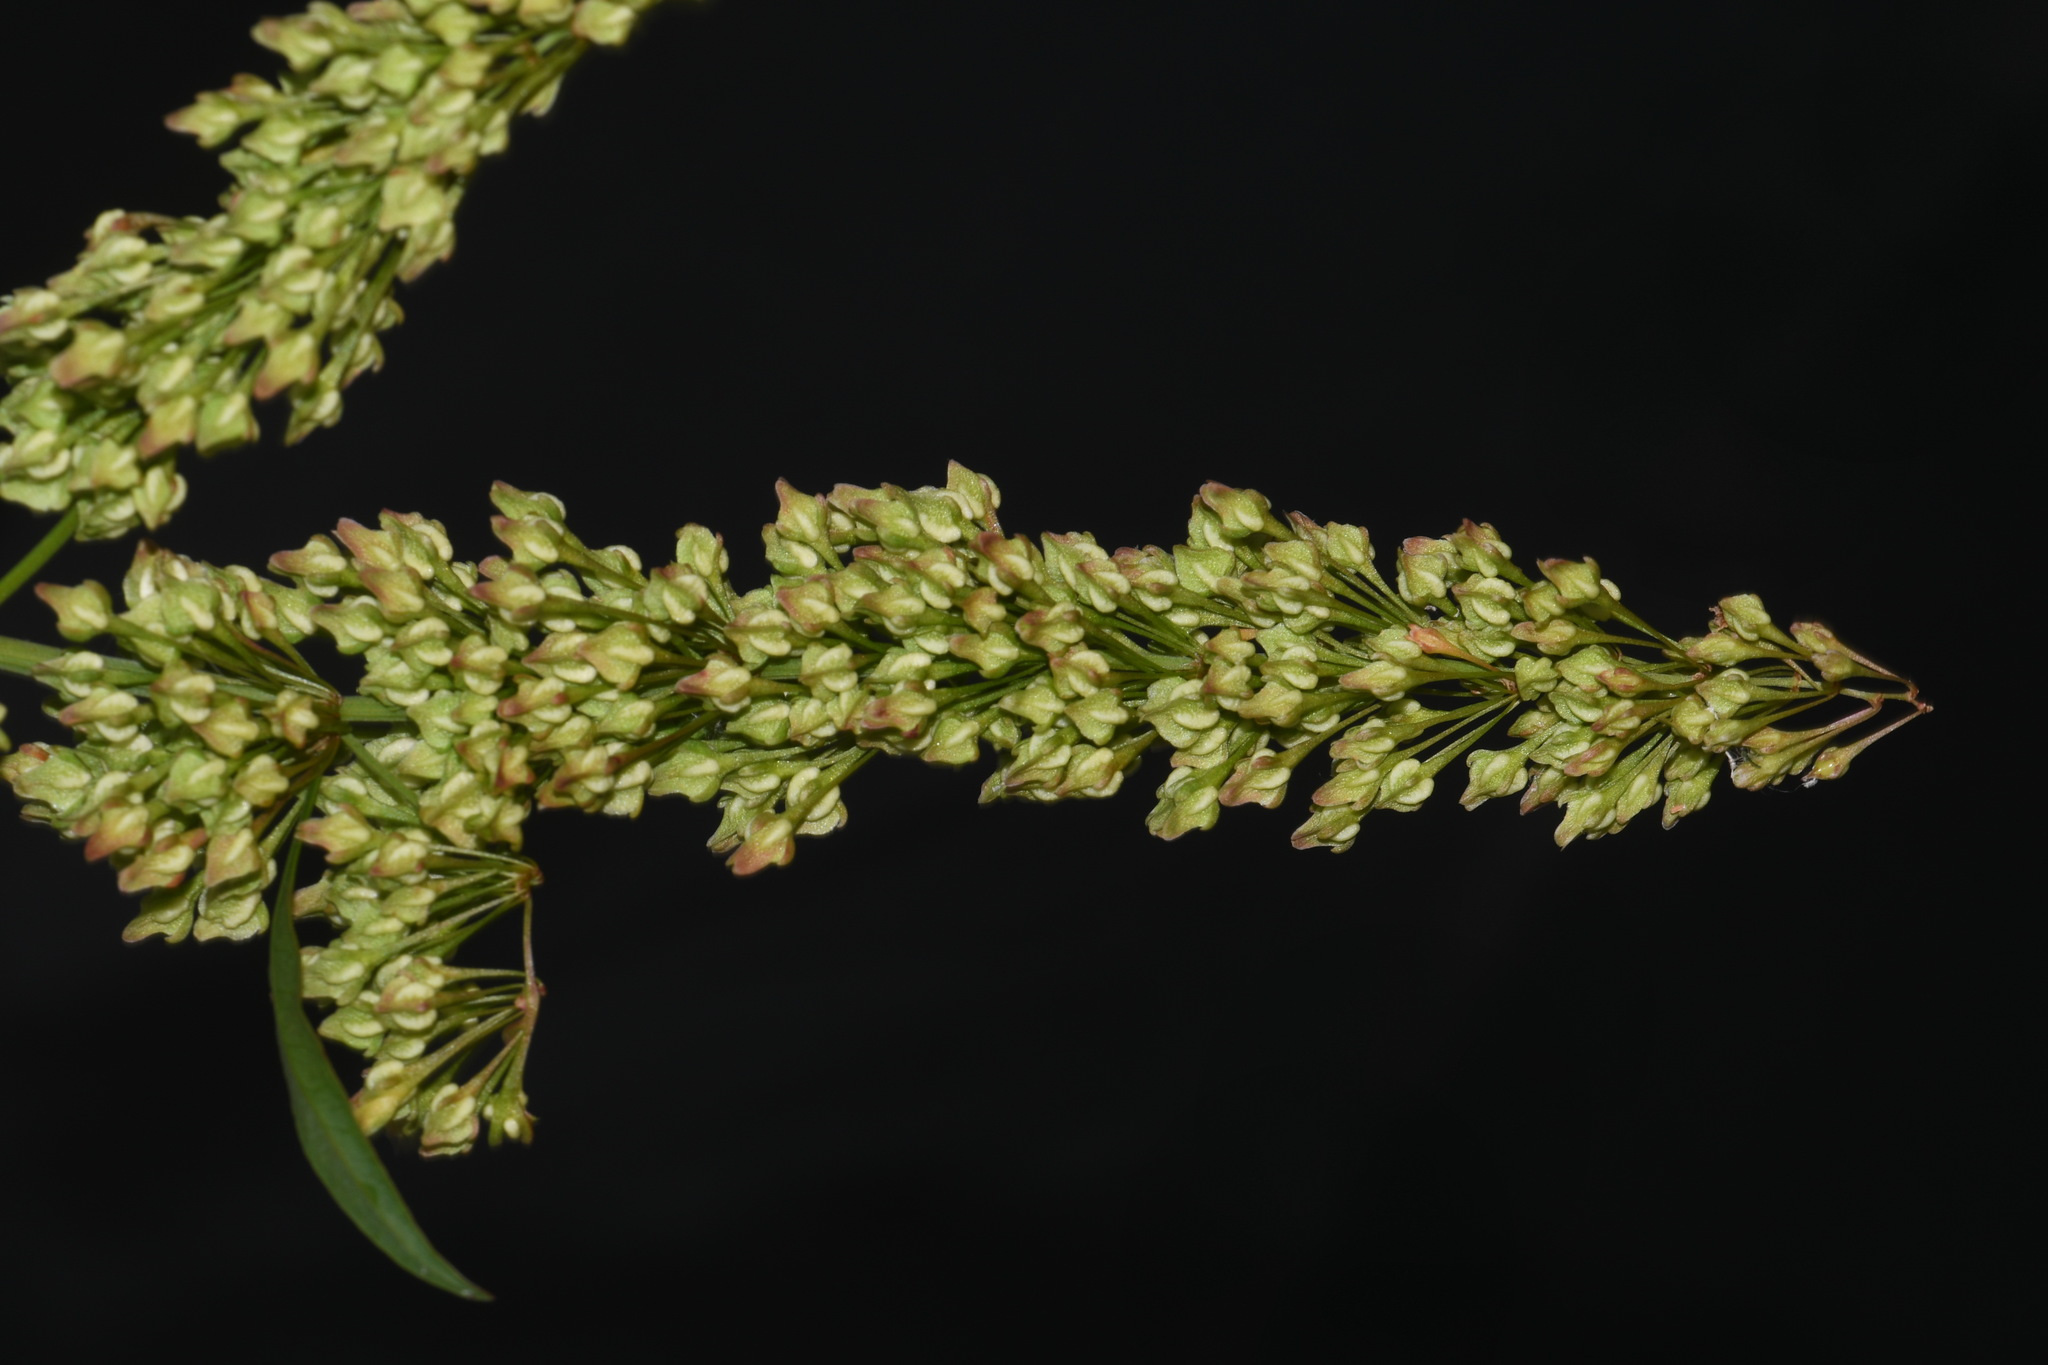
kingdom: Plantae
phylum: Tracheophyta
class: Magnoliopsida
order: Caryophyllales
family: Polygonaceae
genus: Rumex
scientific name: Rumex verticillatus
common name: Swamp dock
